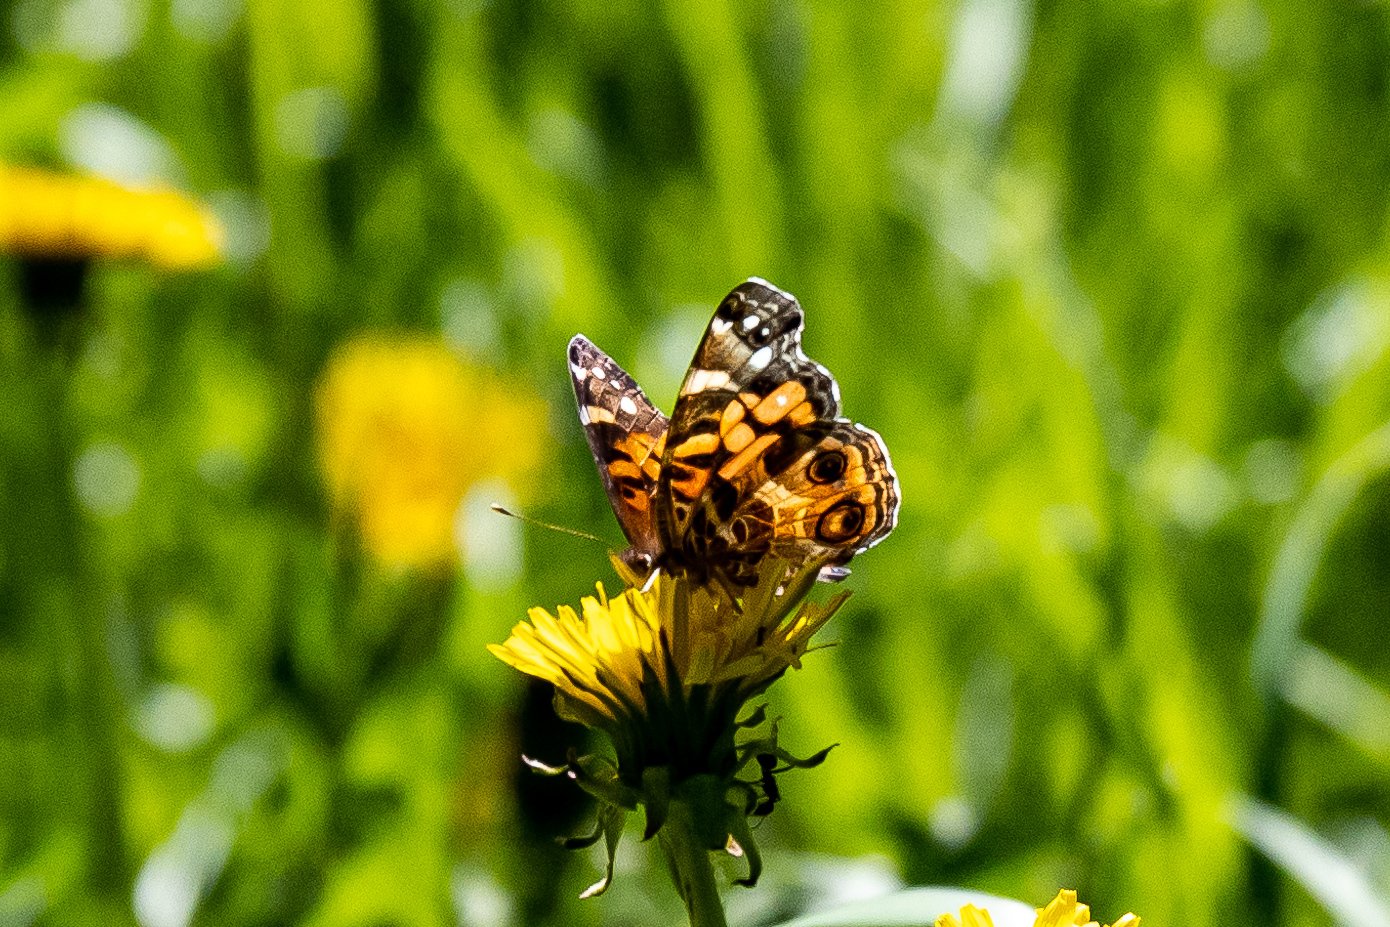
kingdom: Animalia
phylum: Arthropoda
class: Insecta
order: Lepidoptera
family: Nymphalidae
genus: Vanessa
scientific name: Vanessa virginiensis
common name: American lady
